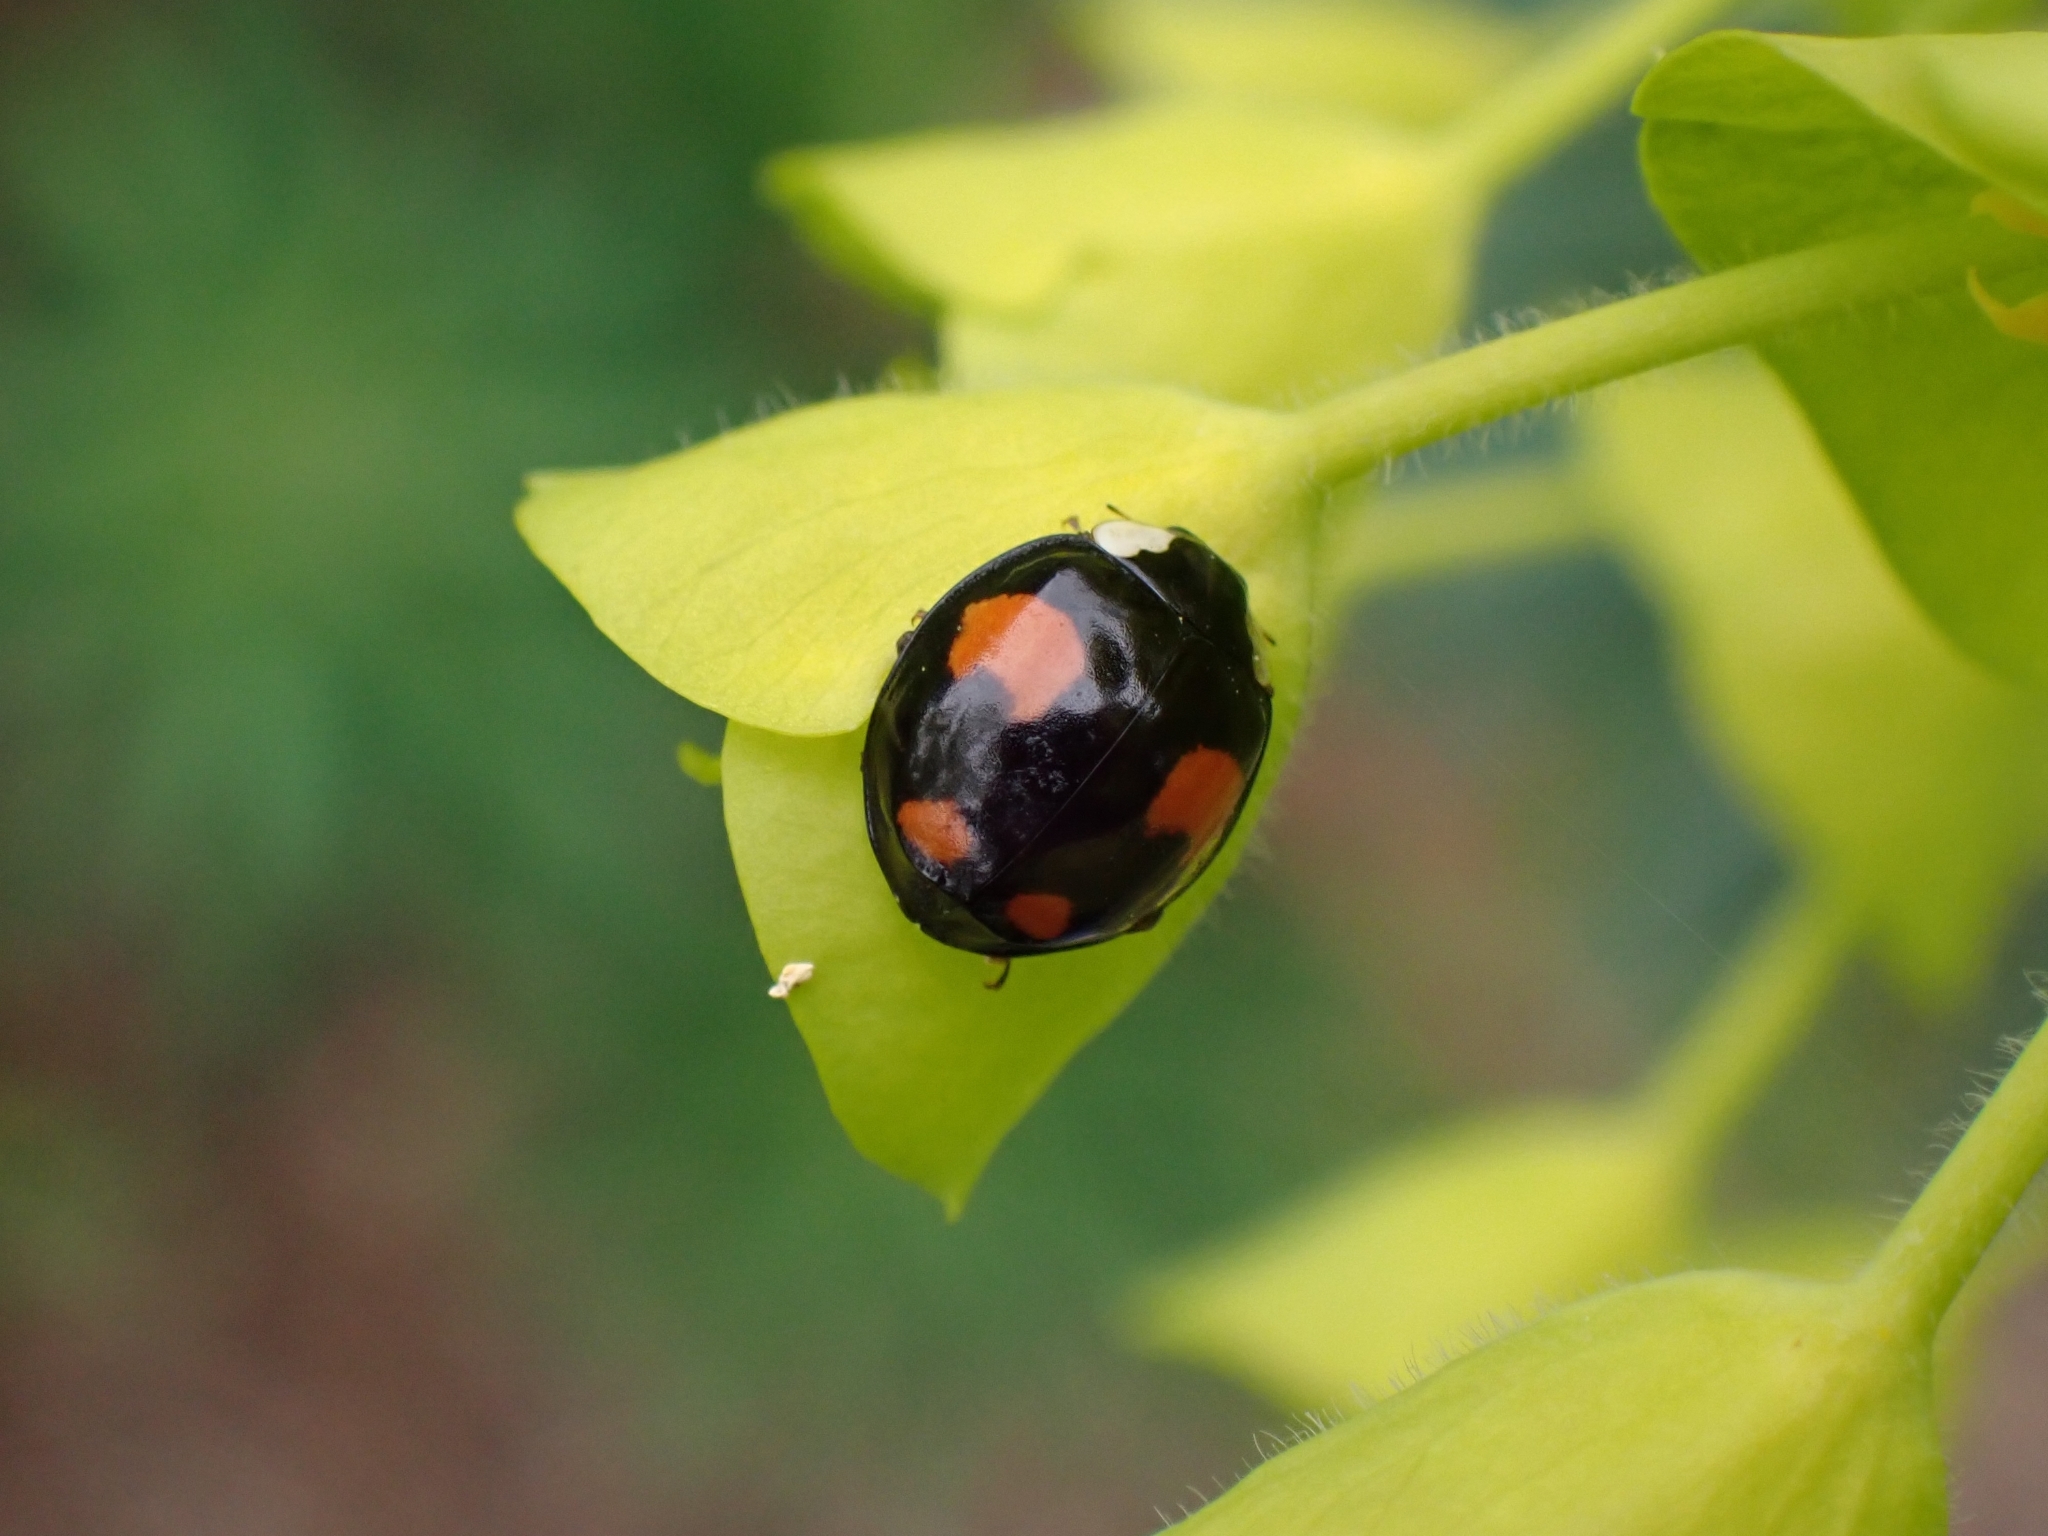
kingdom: Animalia
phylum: Arthropoda
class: Insecta
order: Coleoptera
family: Coccinellidae
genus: Harmonia
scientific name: Harmonia axyridis
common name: Harlequin ladybird
